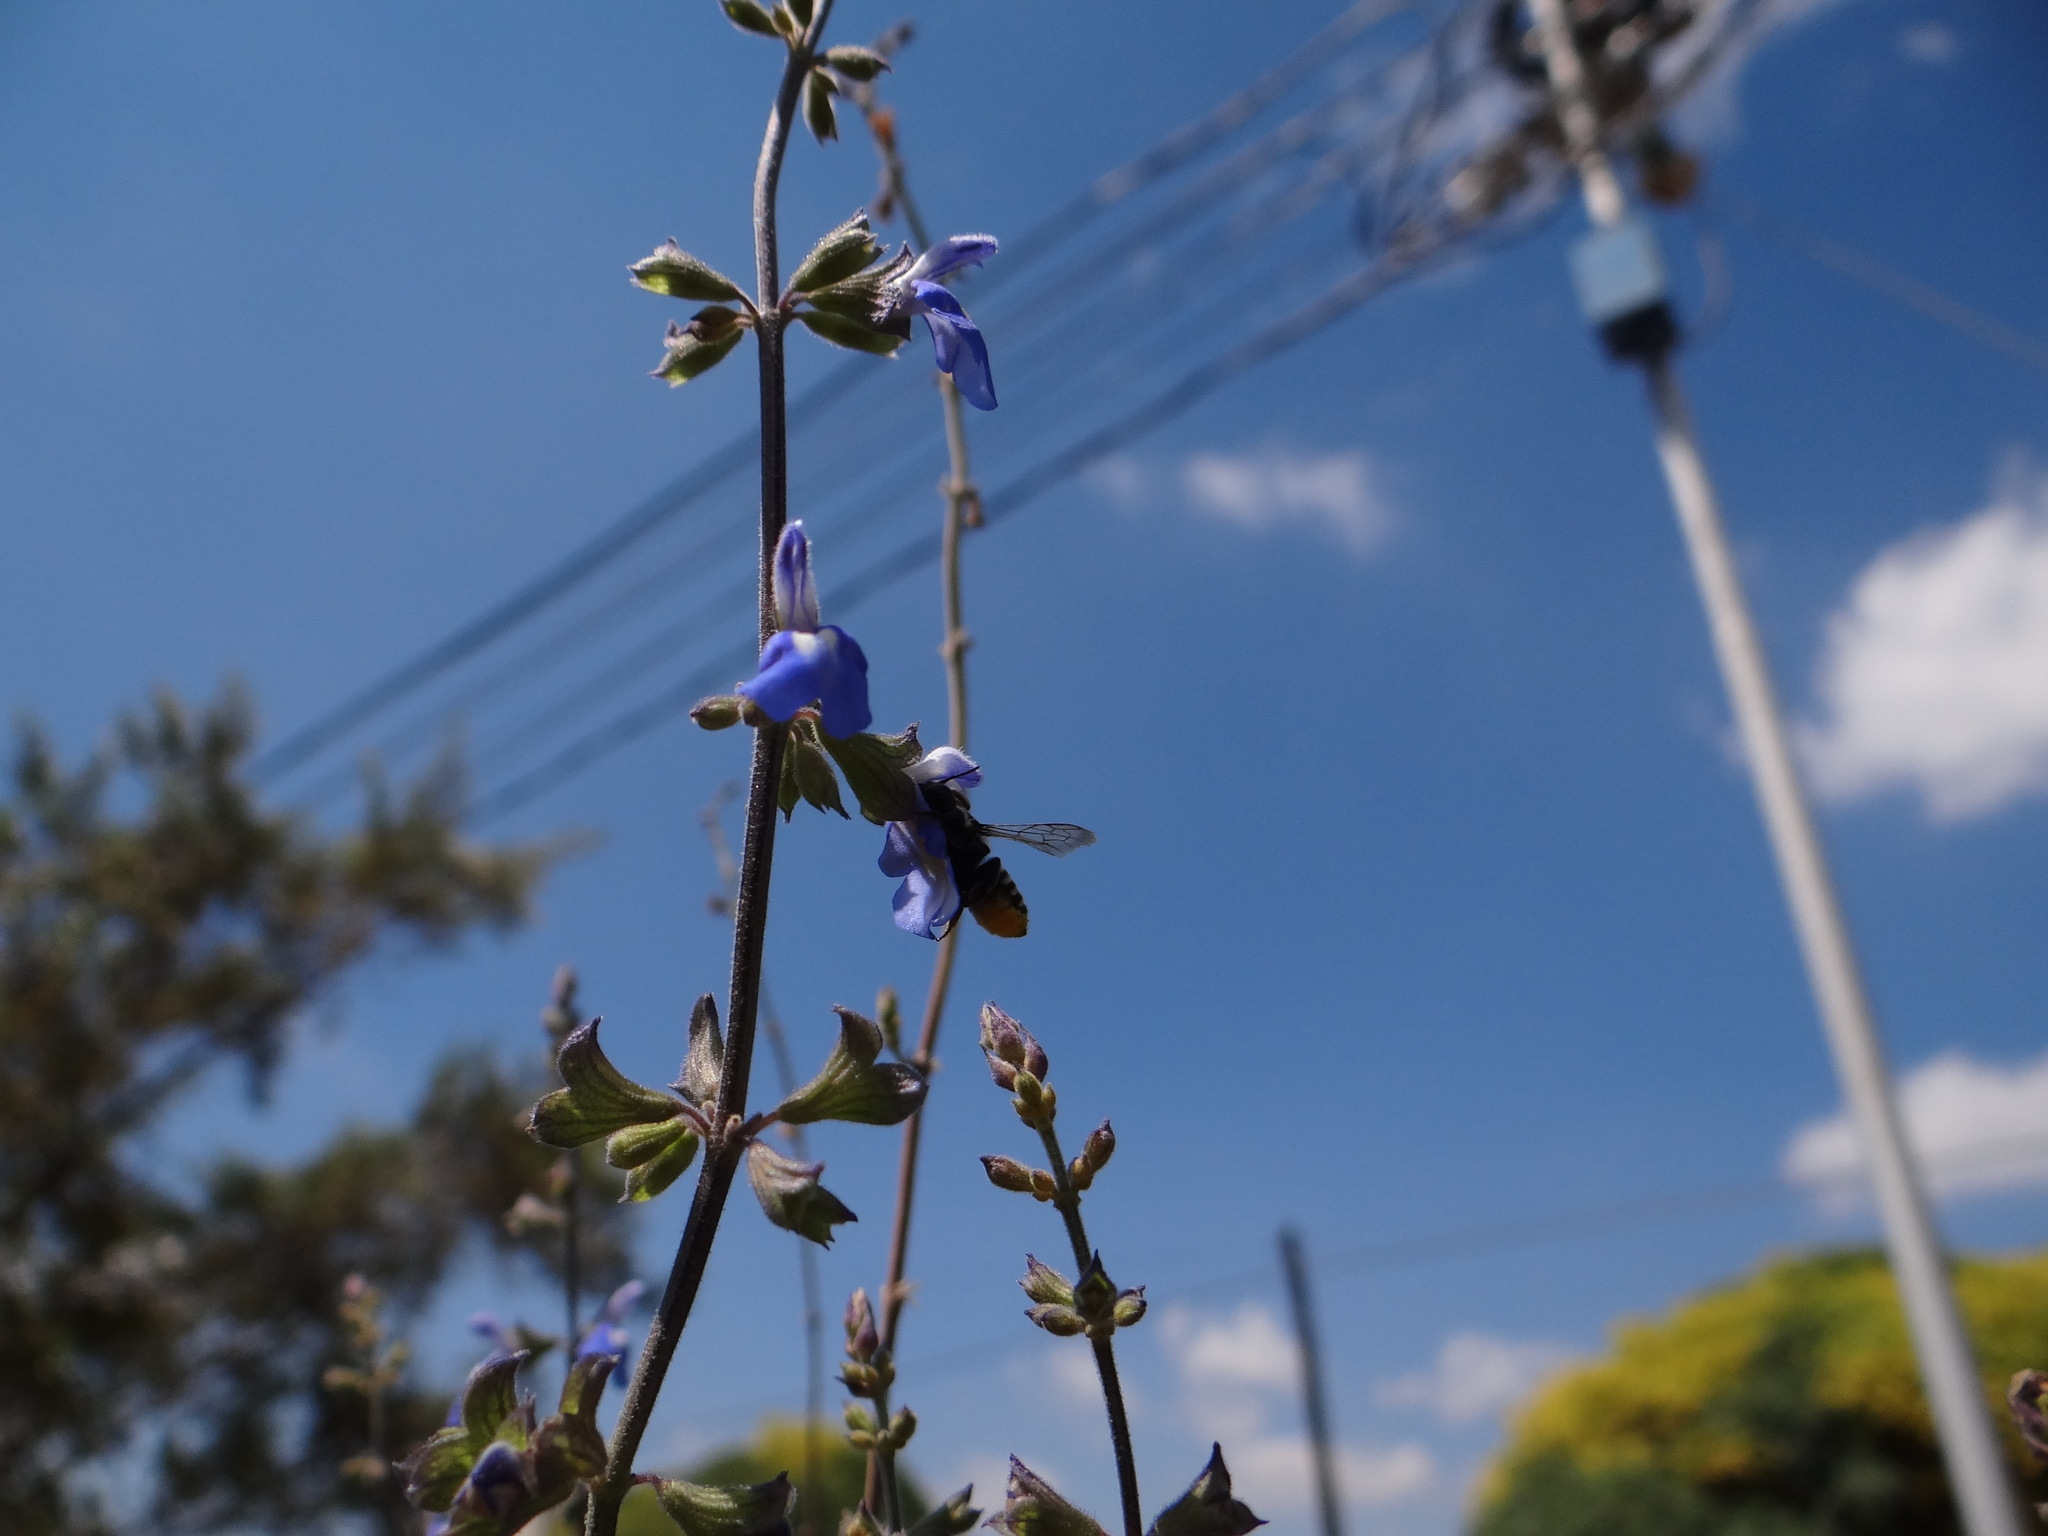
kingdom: Animalia
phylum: Arthropoda
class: Insecta
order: Hymenoptera
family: Megachilidae
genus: Megachile
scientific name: Megachile
